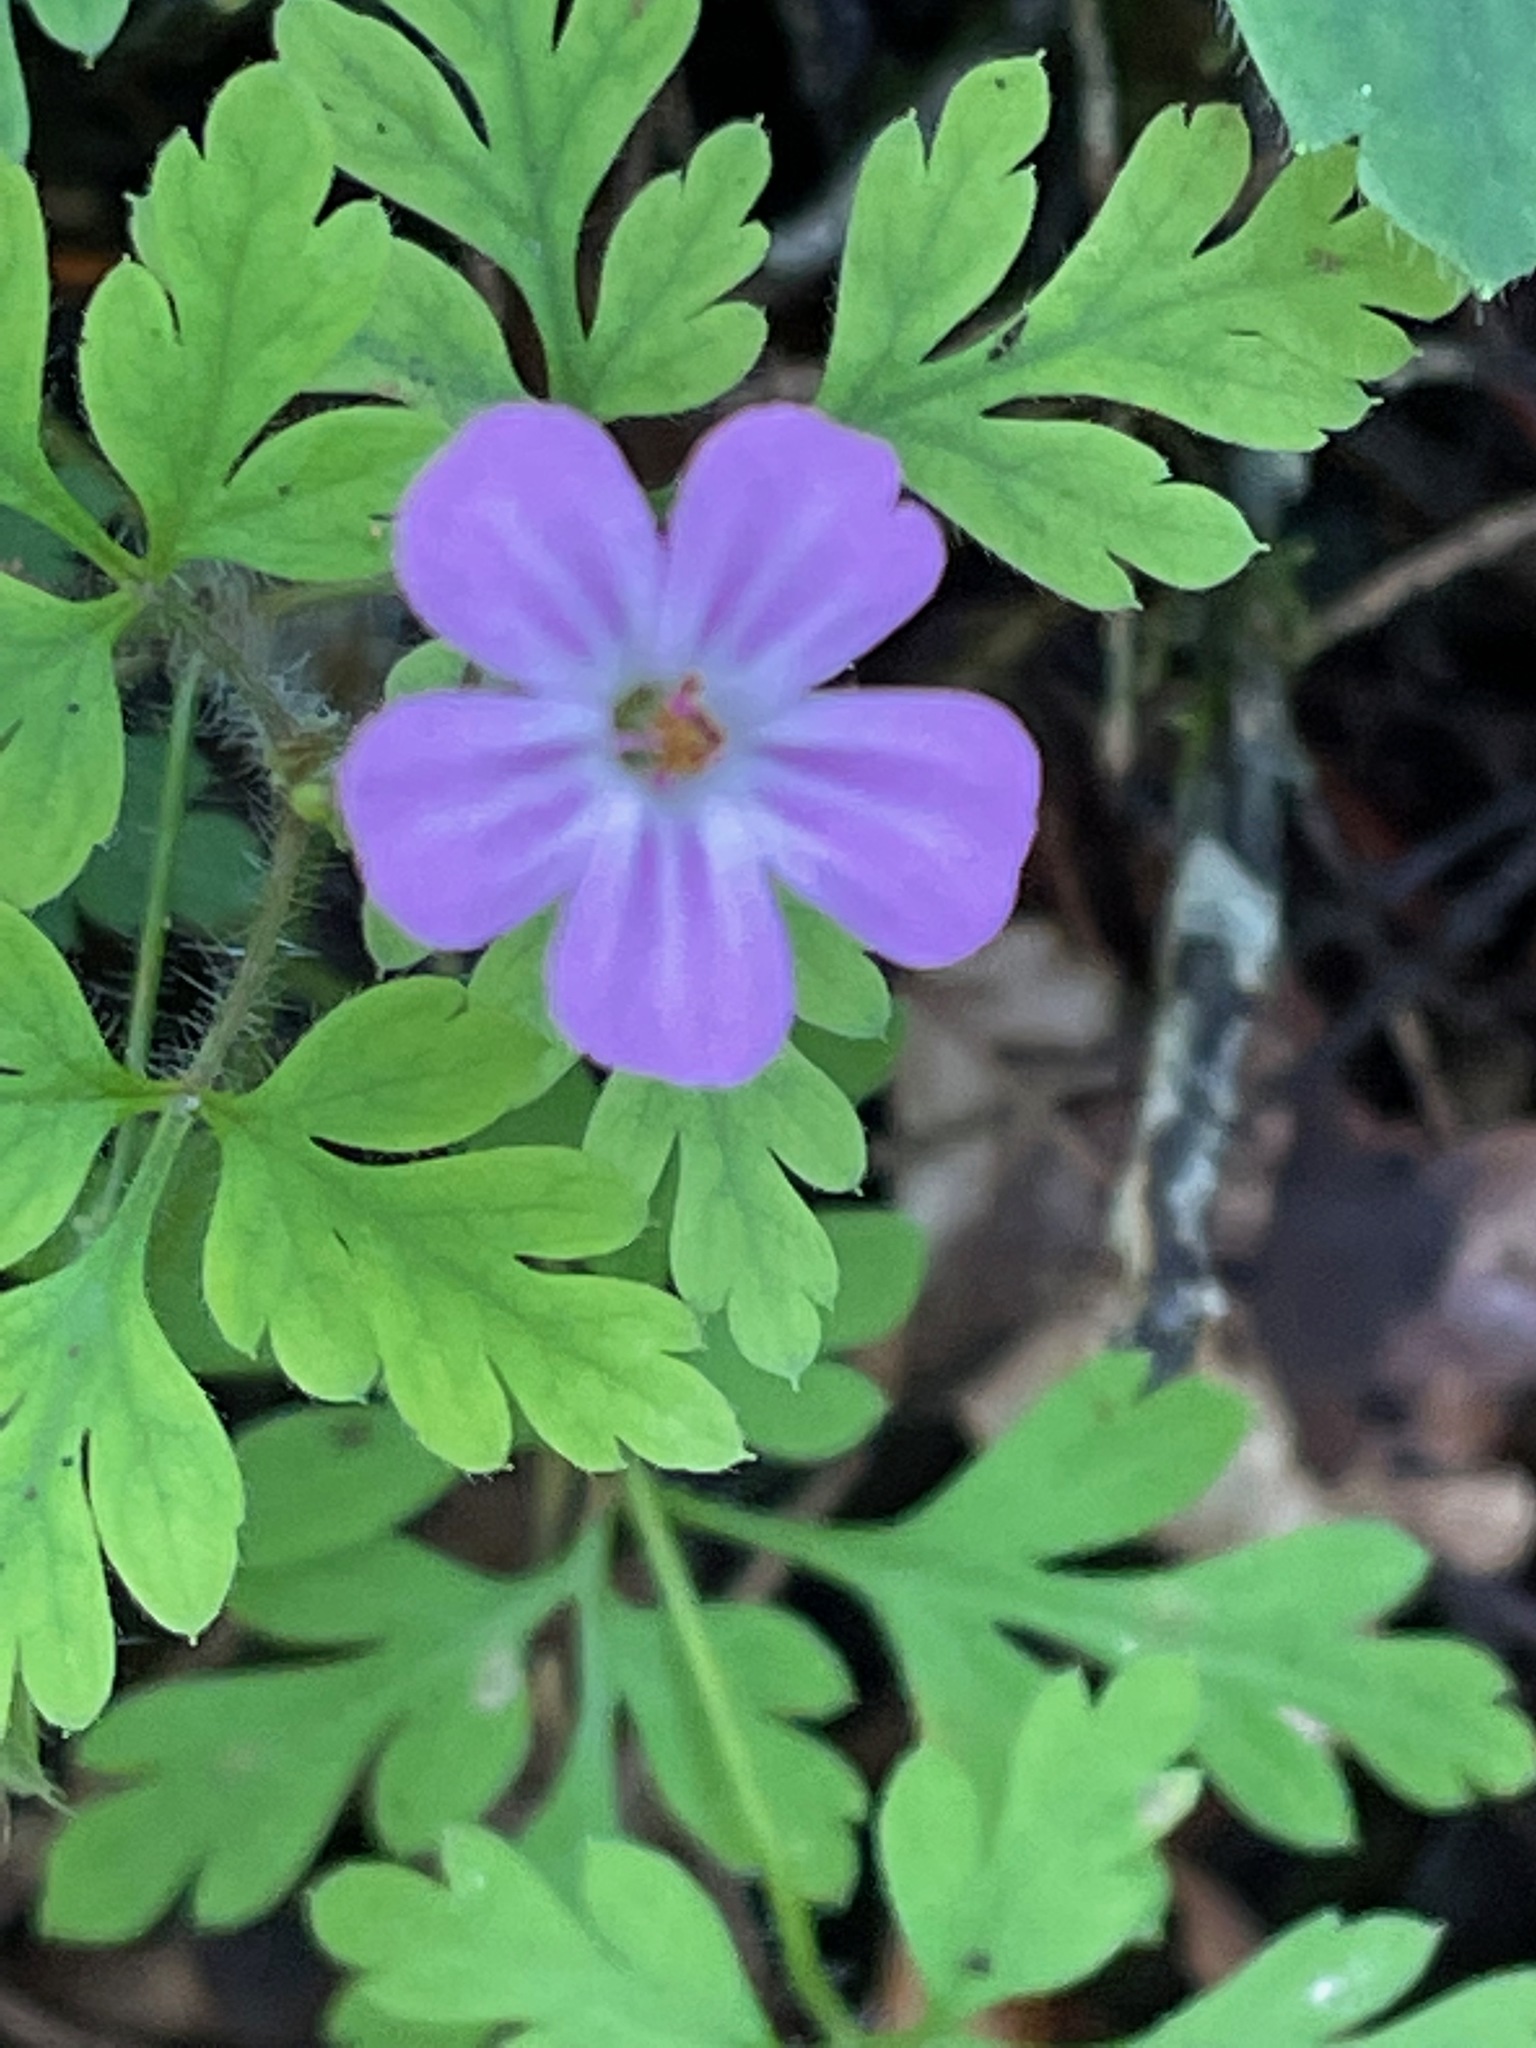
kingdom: Plantae
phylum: Tracheophyta
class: Magnoliopsida
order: Geraniales
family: Geraniaceae
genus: Geranium
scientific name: Geranium robertianum
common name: Herb-robert
